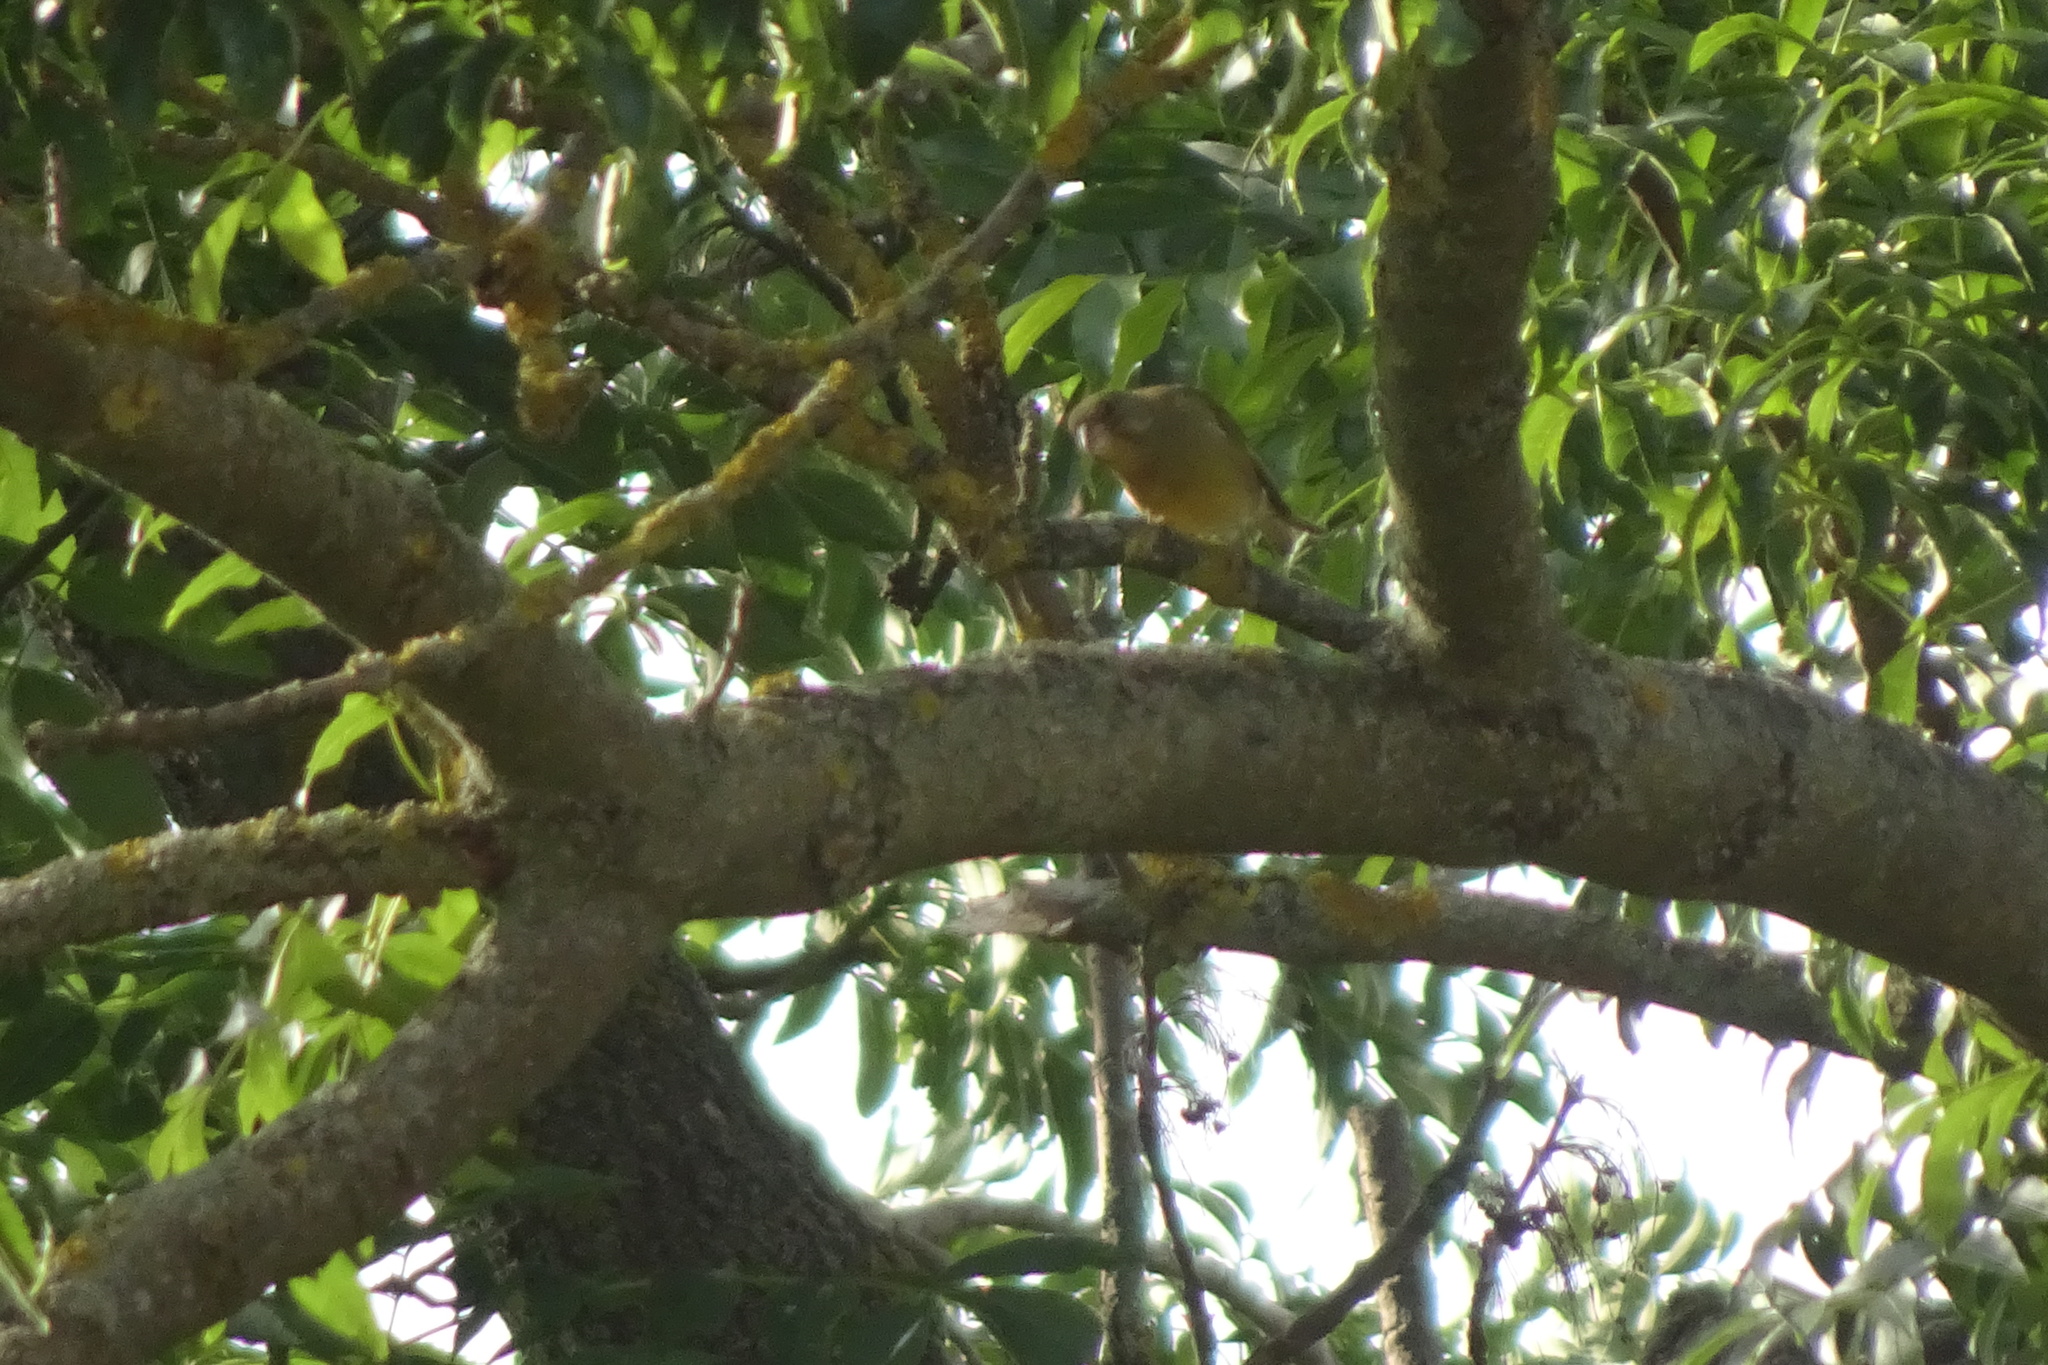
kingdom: Plantae
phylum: Tracheophyta
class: Liliopsida
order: Poales
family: Poaceae
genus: Chloris
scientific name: Chloris chloris
